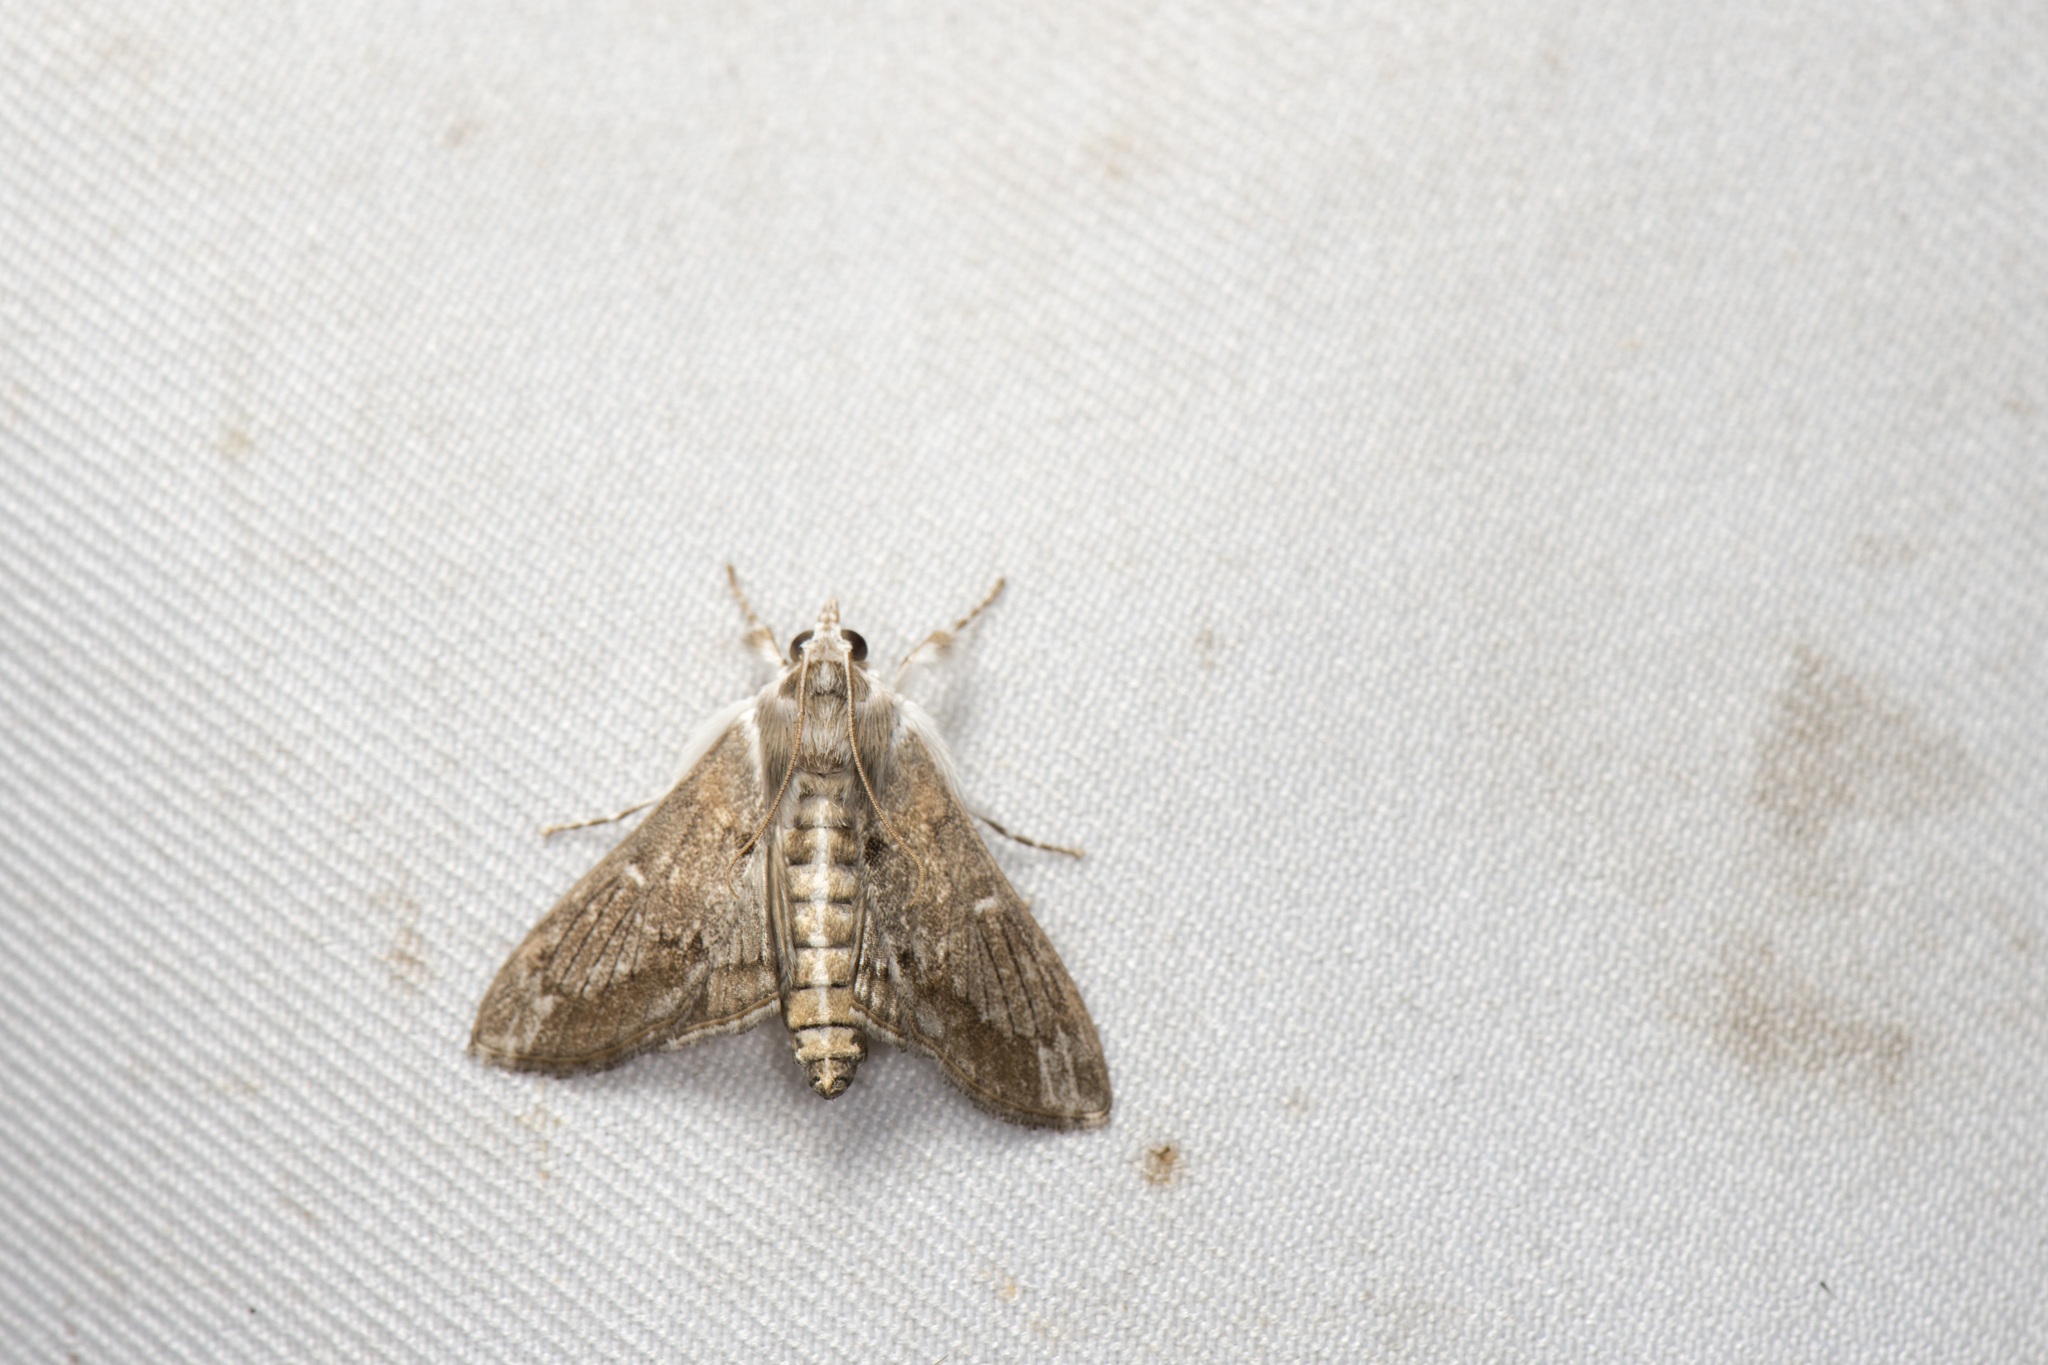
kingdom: Animalia
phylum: Arthropoda
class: Insecta
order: Lepidoptera
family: Crambidae
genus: Cirrhochrista
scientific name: Cirrhochrista spissalis
